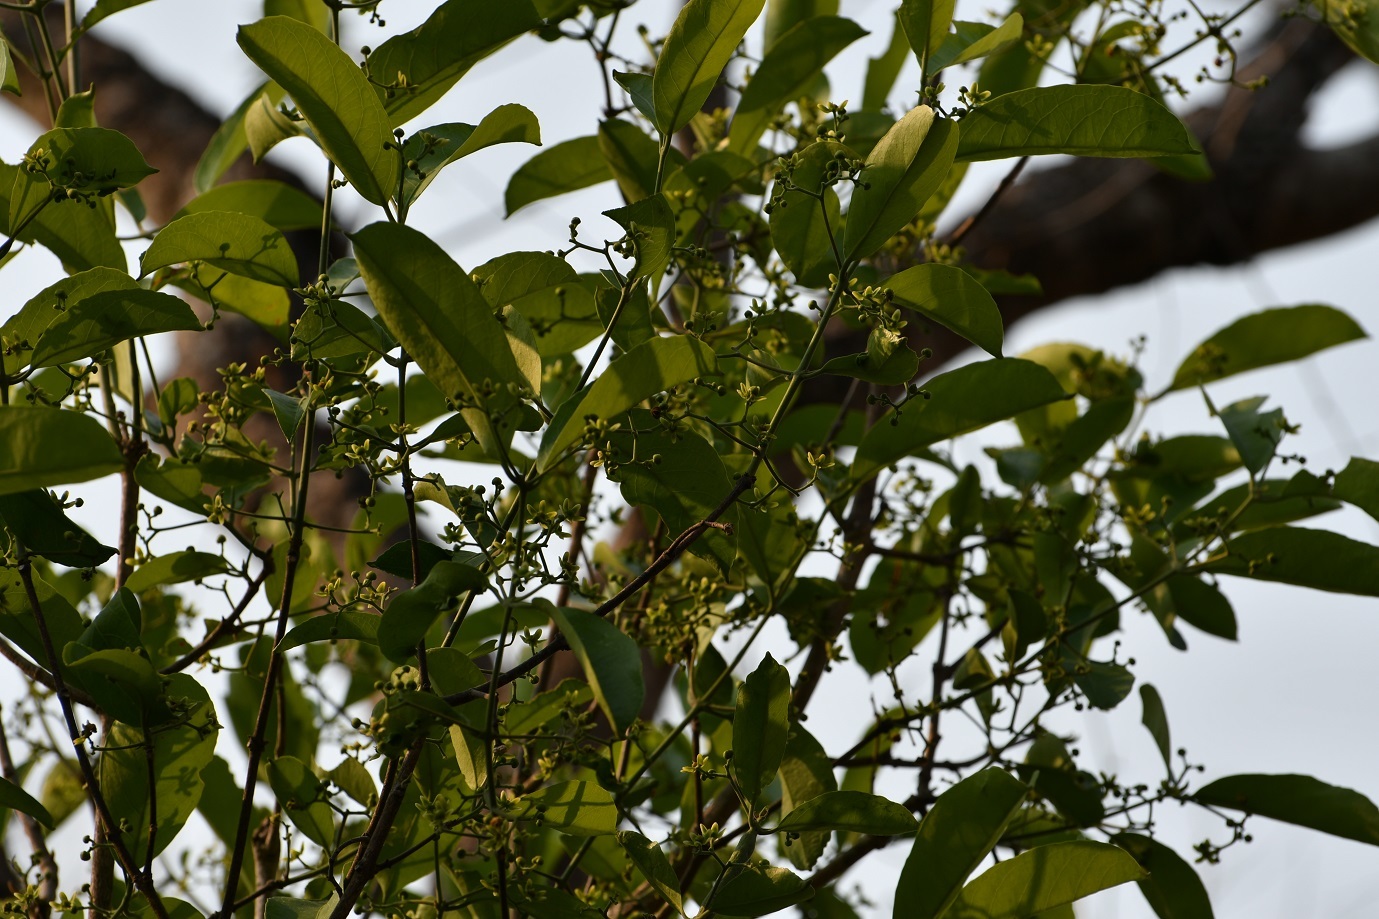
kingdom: Plantae
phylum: Tracheophyta
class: Magnoliopsida
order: Celastrales
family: Celastraceae
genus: Semialarium
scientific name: Semialarium mexicanum
